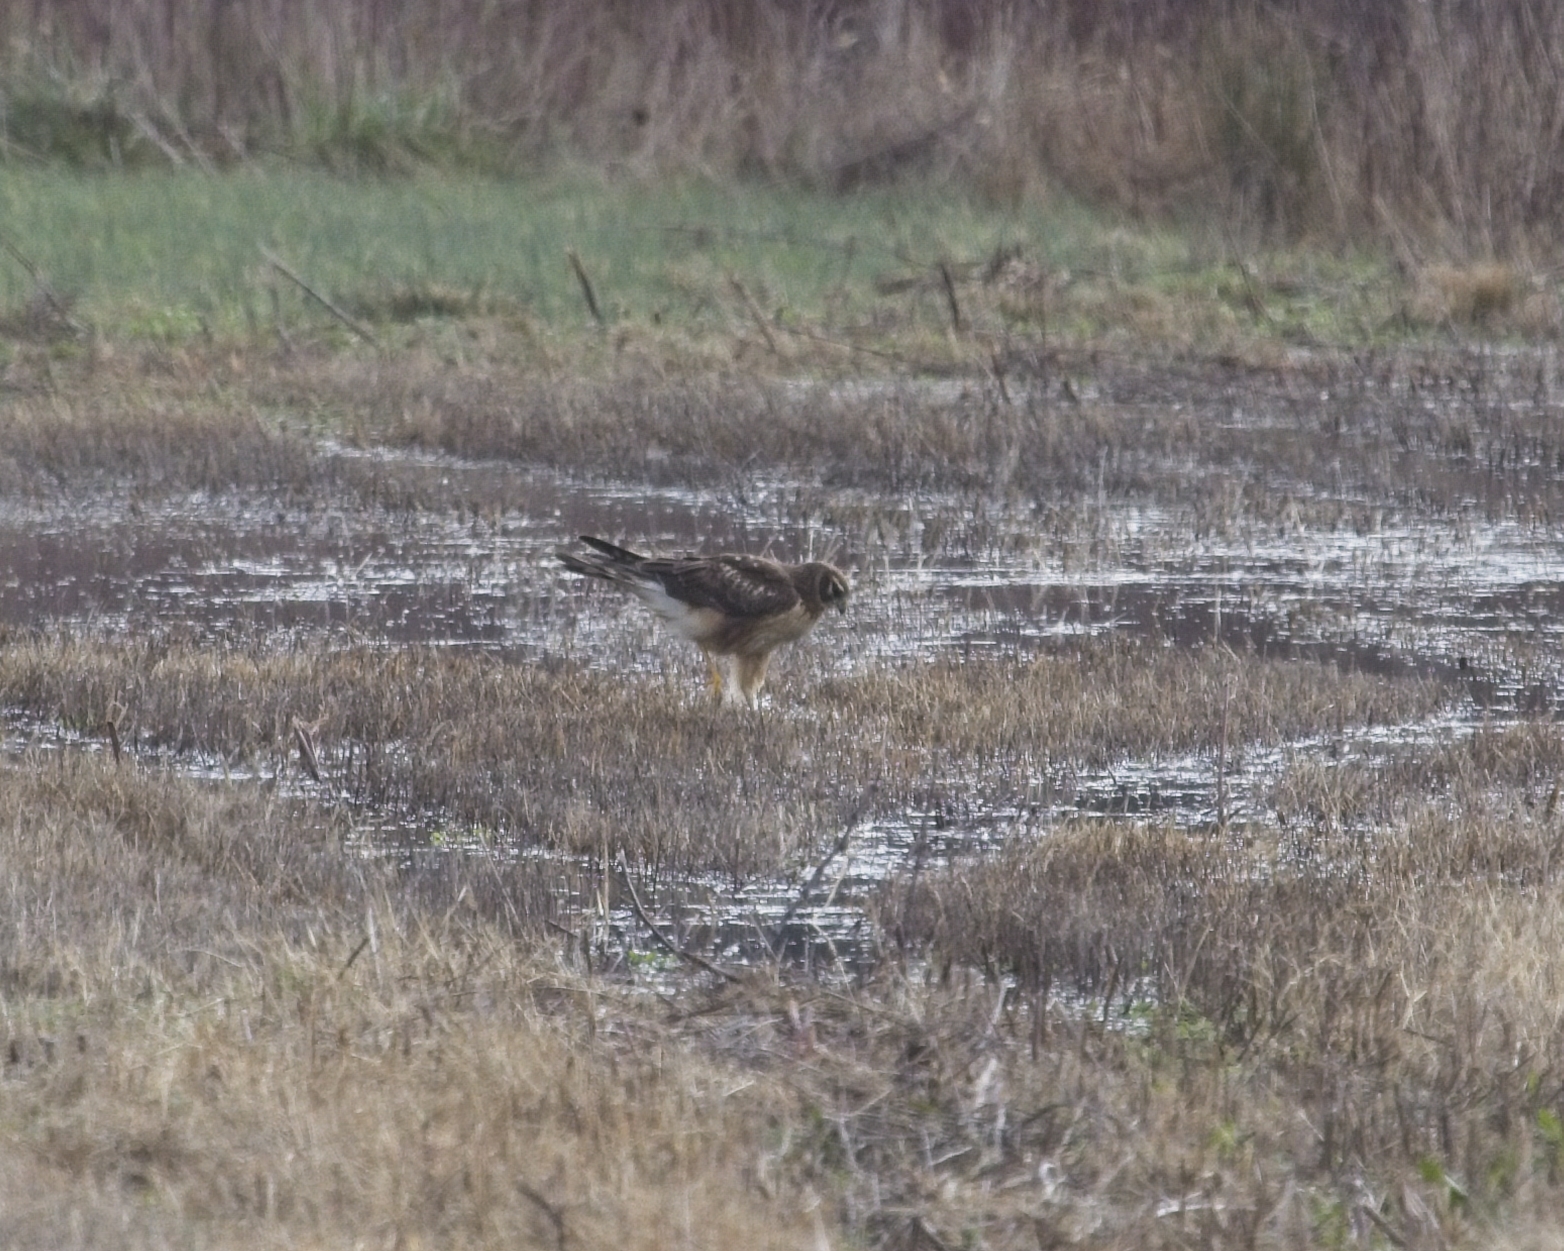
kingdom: Animalia
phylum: Chordata
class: Aves
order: Accipitriformes
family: Accipitridae
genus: Circus
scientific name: Circus cyaneus
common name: Hen harrier
